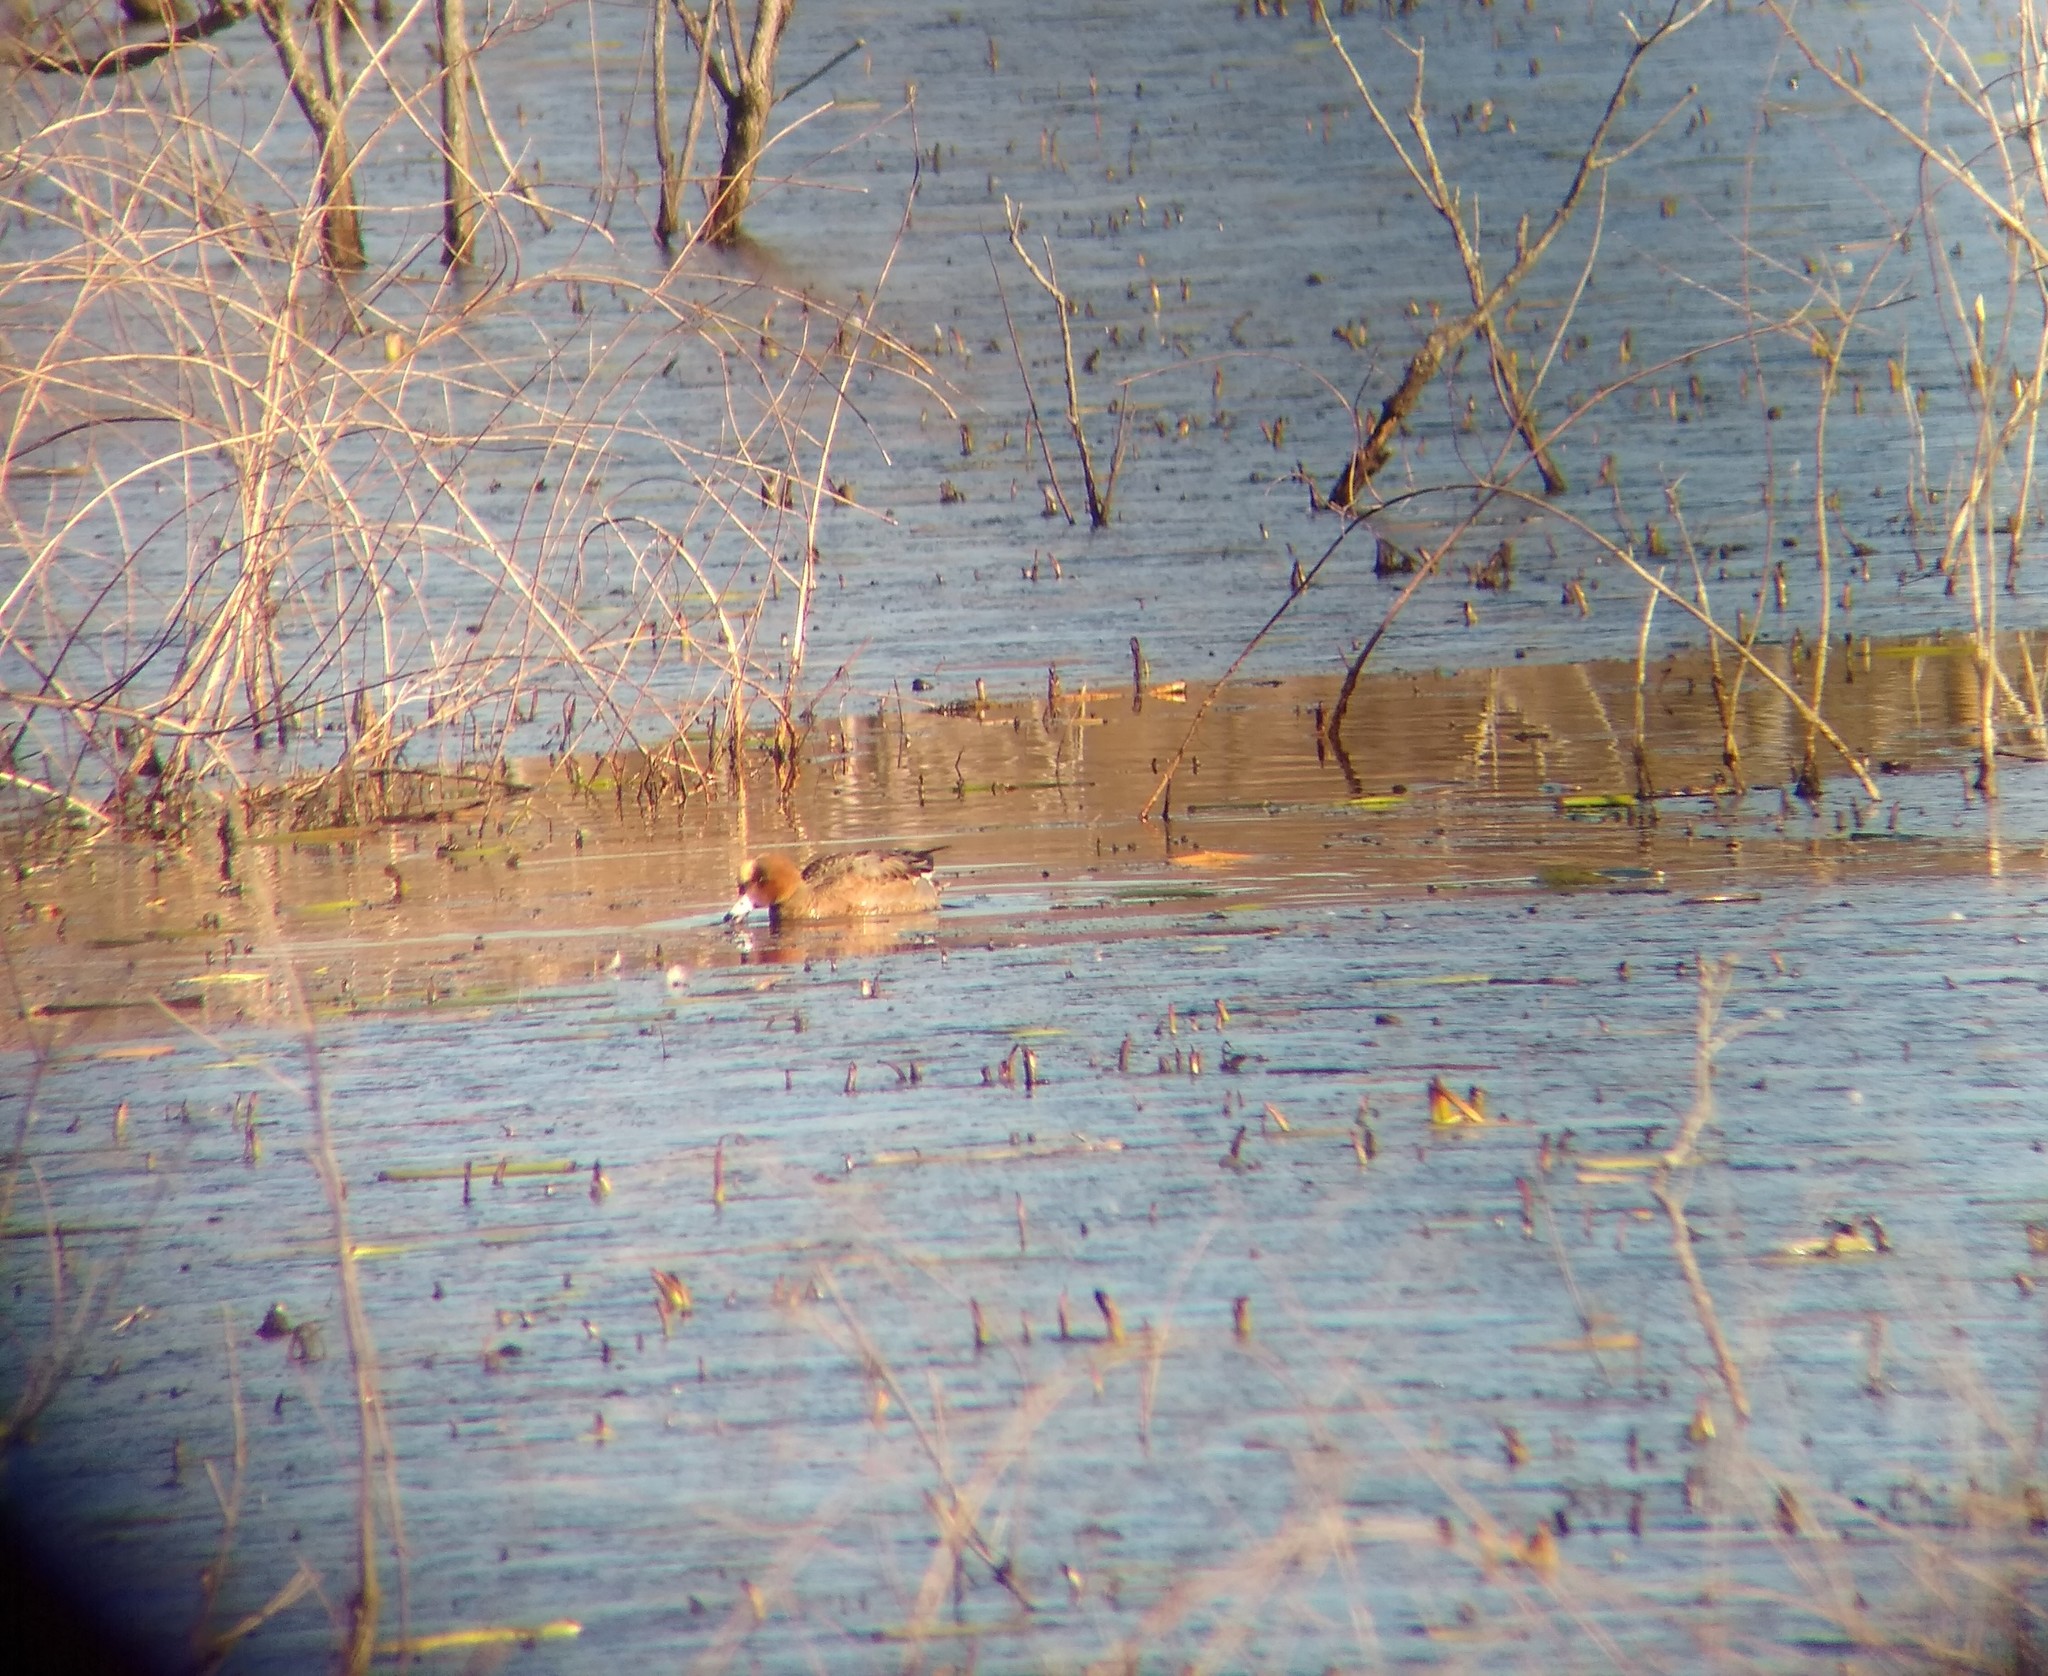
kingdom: Animalia
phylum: Chordata
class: Aves
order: Anseriformes
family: Anatidae
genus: Mareca
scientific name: Mareca penelope
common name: Eurasian wigeon
